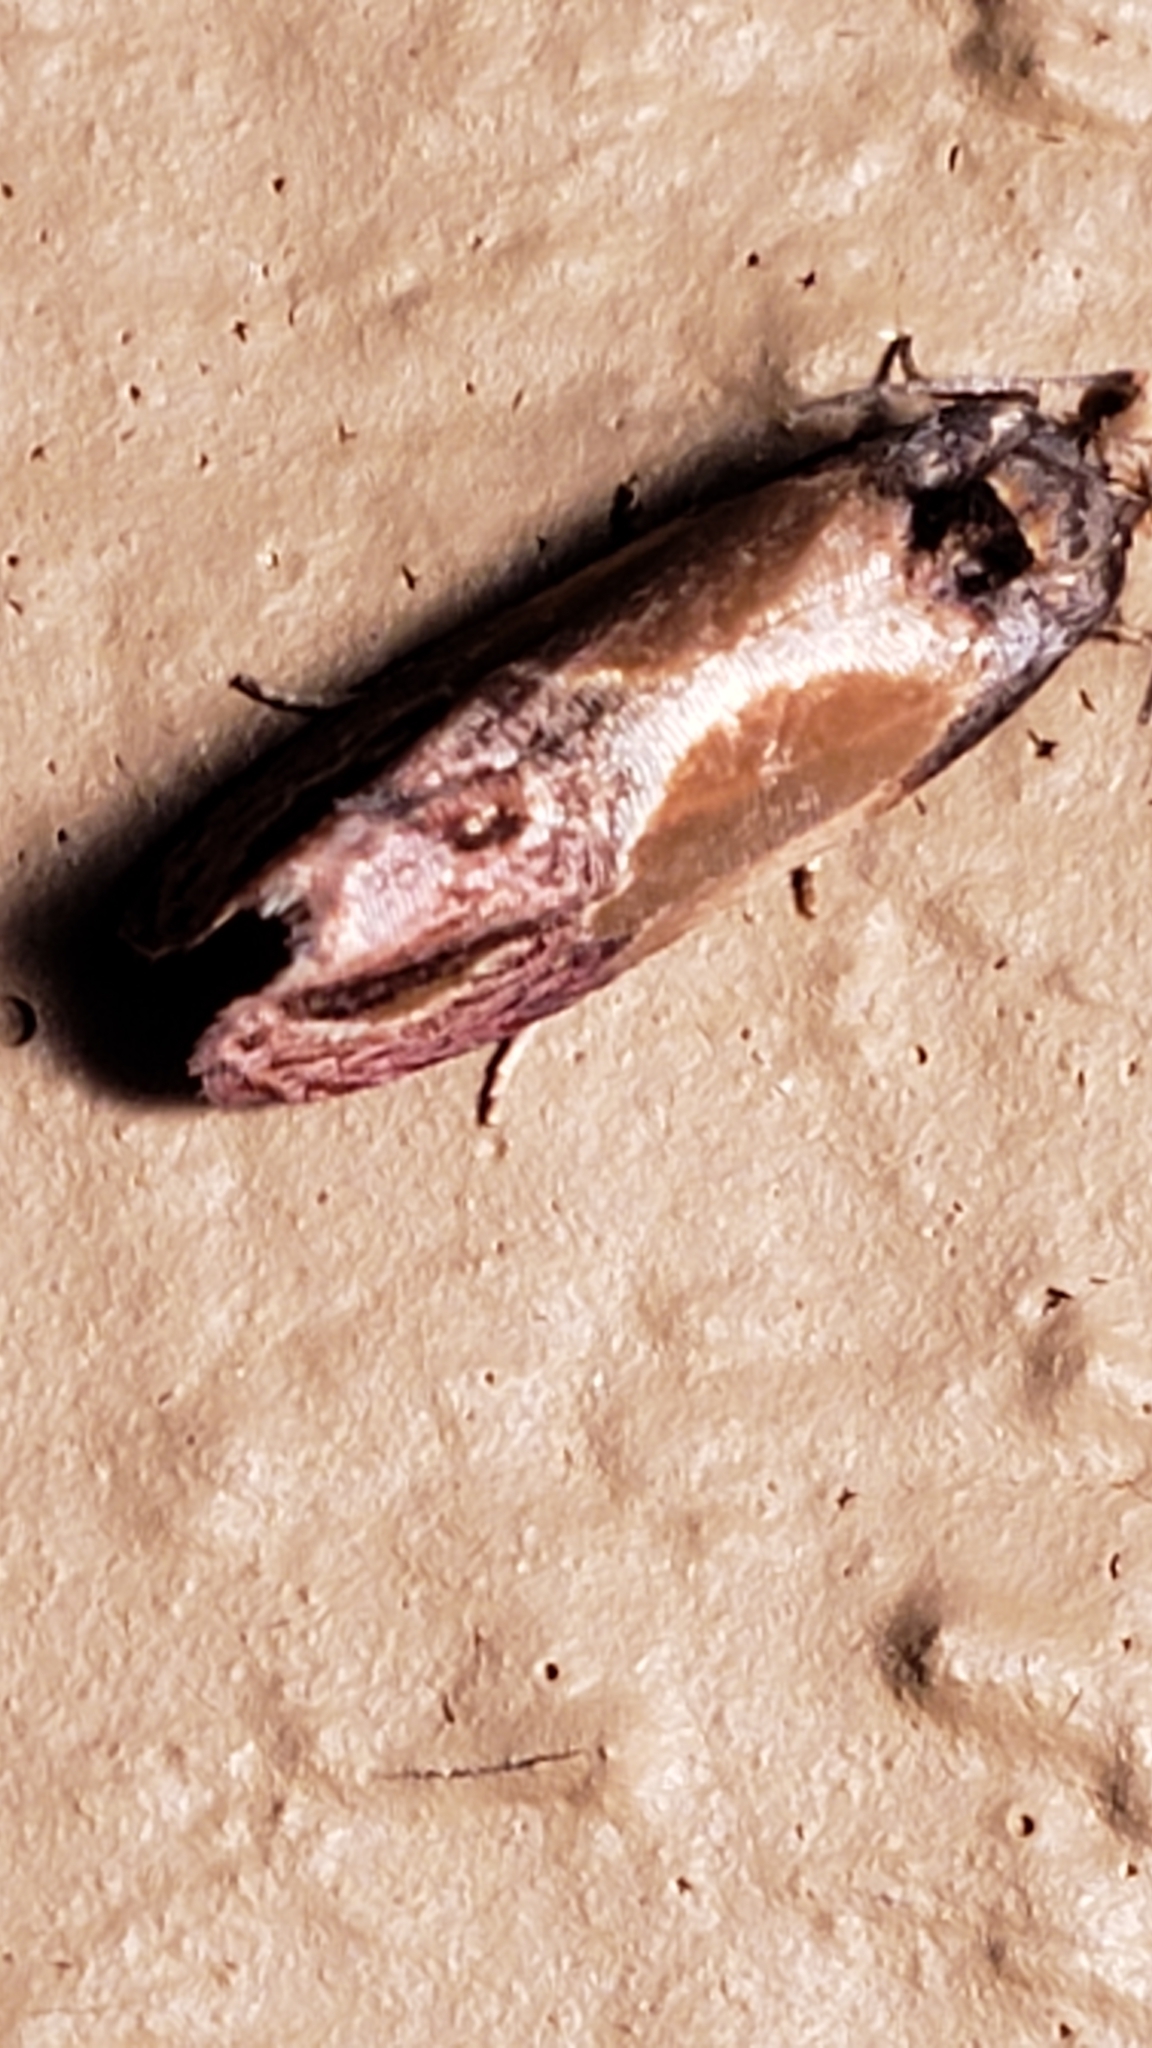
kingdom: Animalia
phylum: Arthropoda
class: Insecta
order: Lepidoptera
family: Tortricidae
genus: Eumarozia
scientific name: Eumarozia malachitana
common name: Sculptured moth
